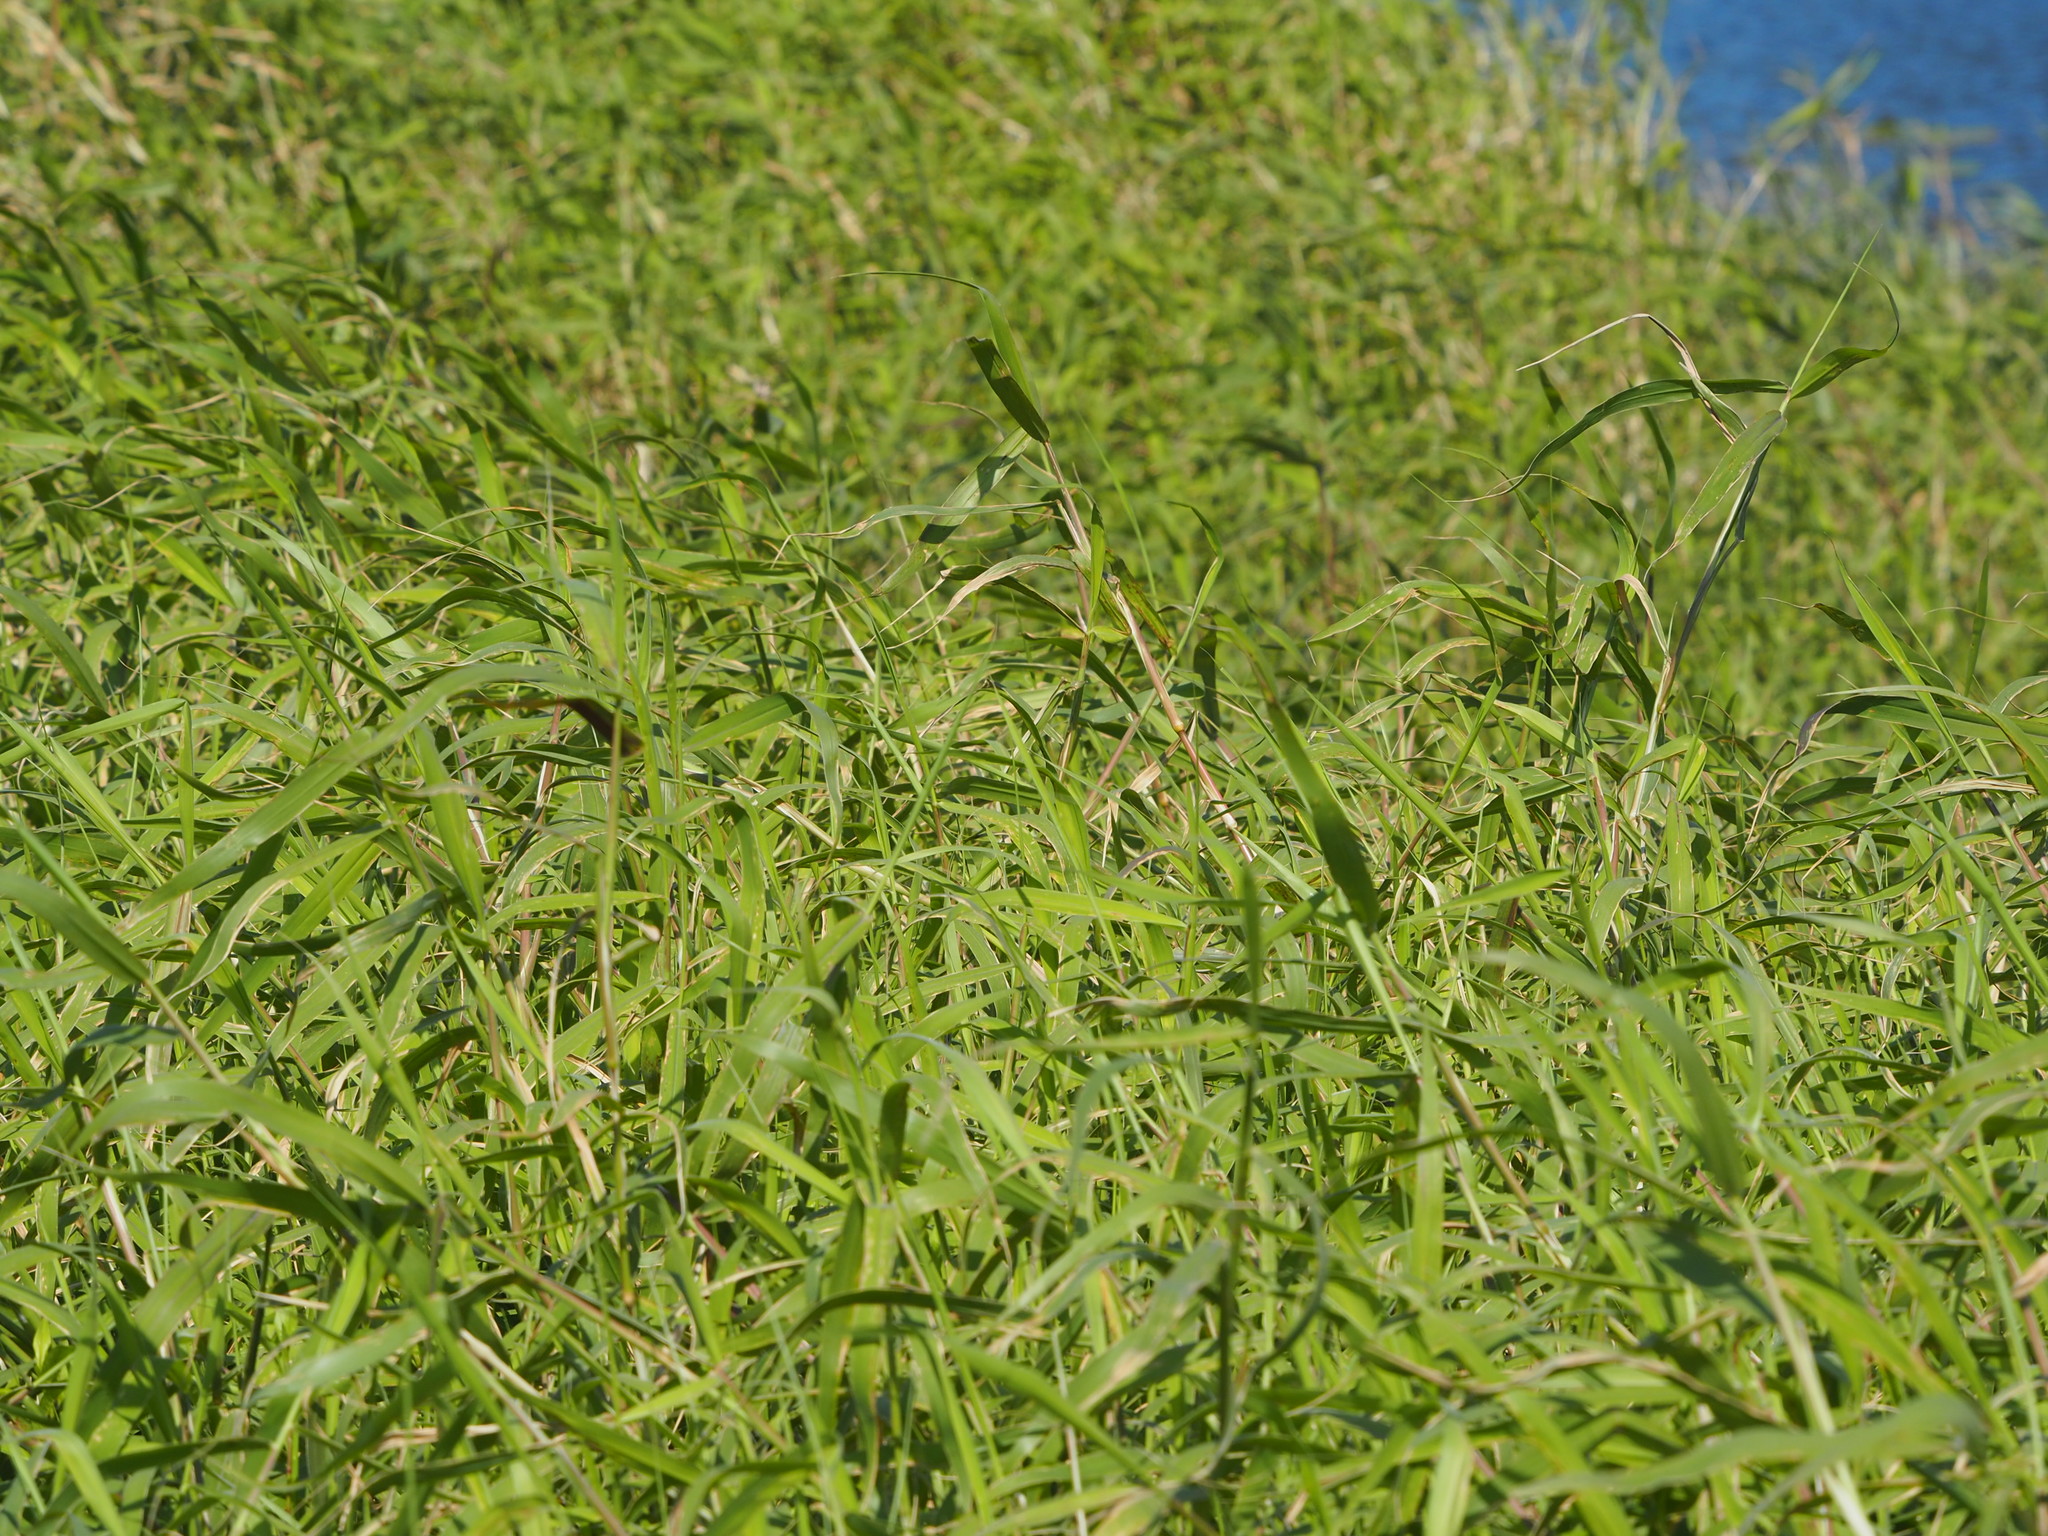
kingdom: Plantae
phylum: Tracheophyta
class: Liliopsida
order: Poales
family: Poaceae
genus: Urochloa
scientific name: Urochloa mutica
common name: Para grass
